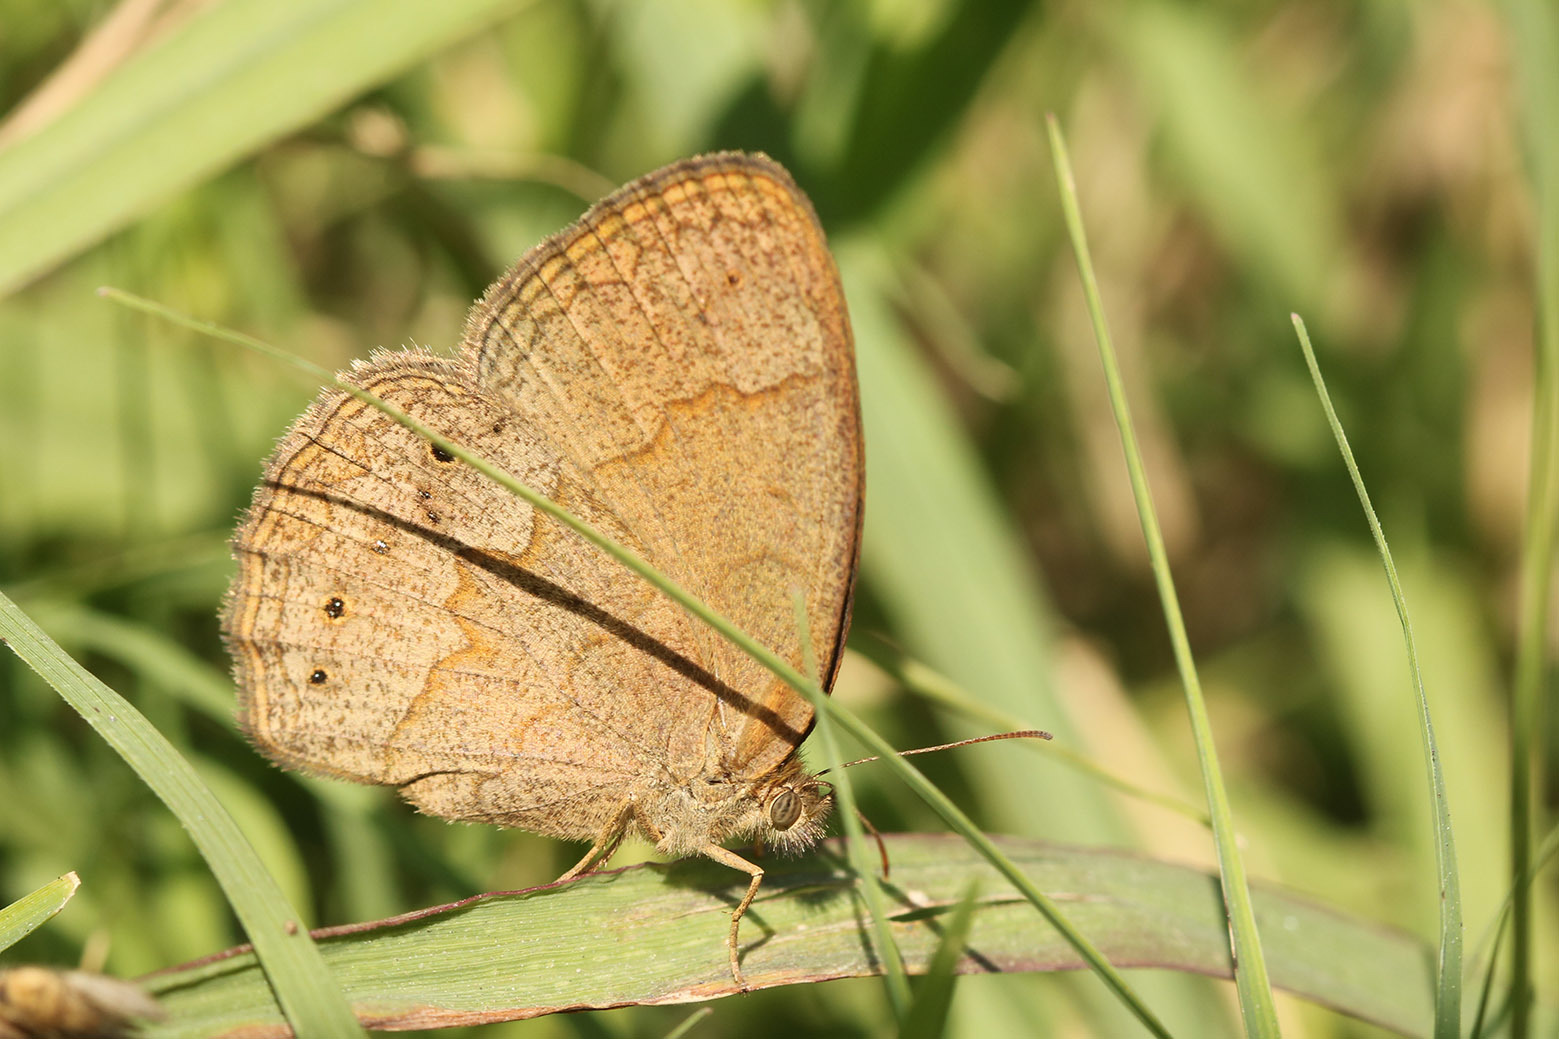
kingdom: Animalia
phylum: Arthropoda
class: Insecta
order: Lepidoptera
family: Nymphalidae
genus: Yphthimoides
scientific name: Yphthimoides celmis
